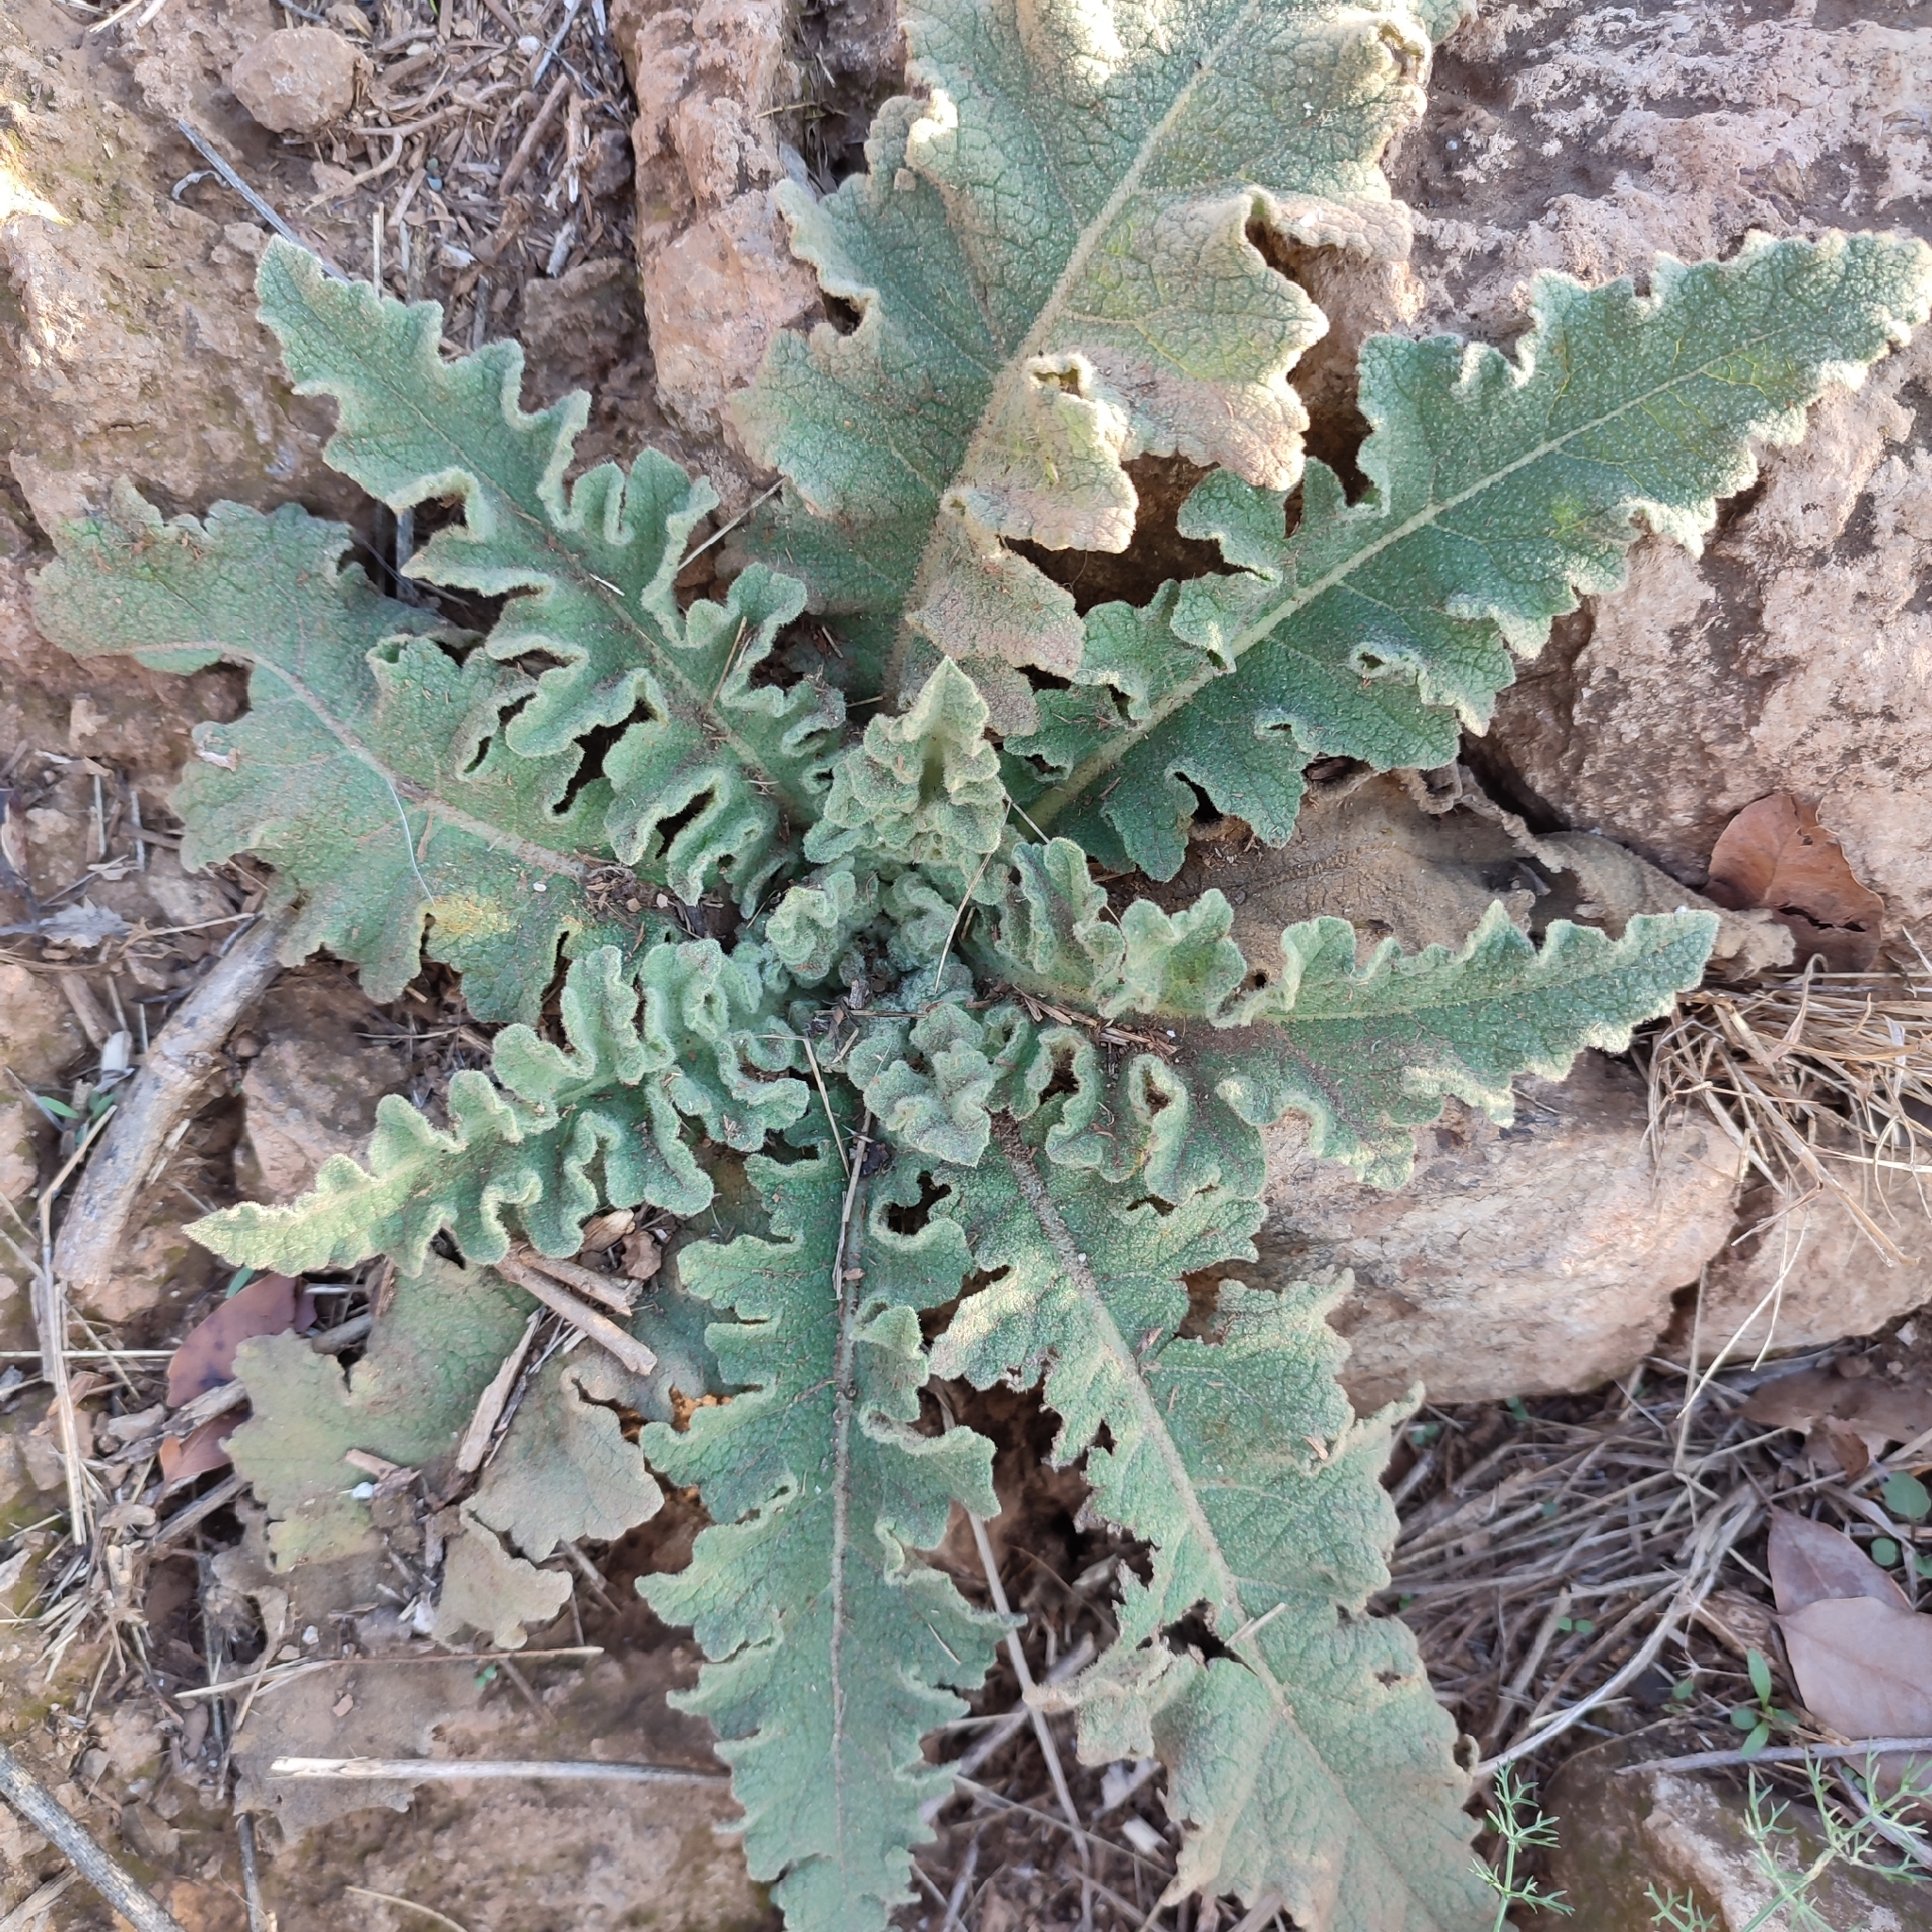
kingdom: Plantae
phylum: Tracheophyta
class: Magnoliopsida
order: Lamiales
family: Scrophulariaceae
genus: Verbascum
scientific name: Verbascum sinuatum
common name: Wavyleaf mullein
